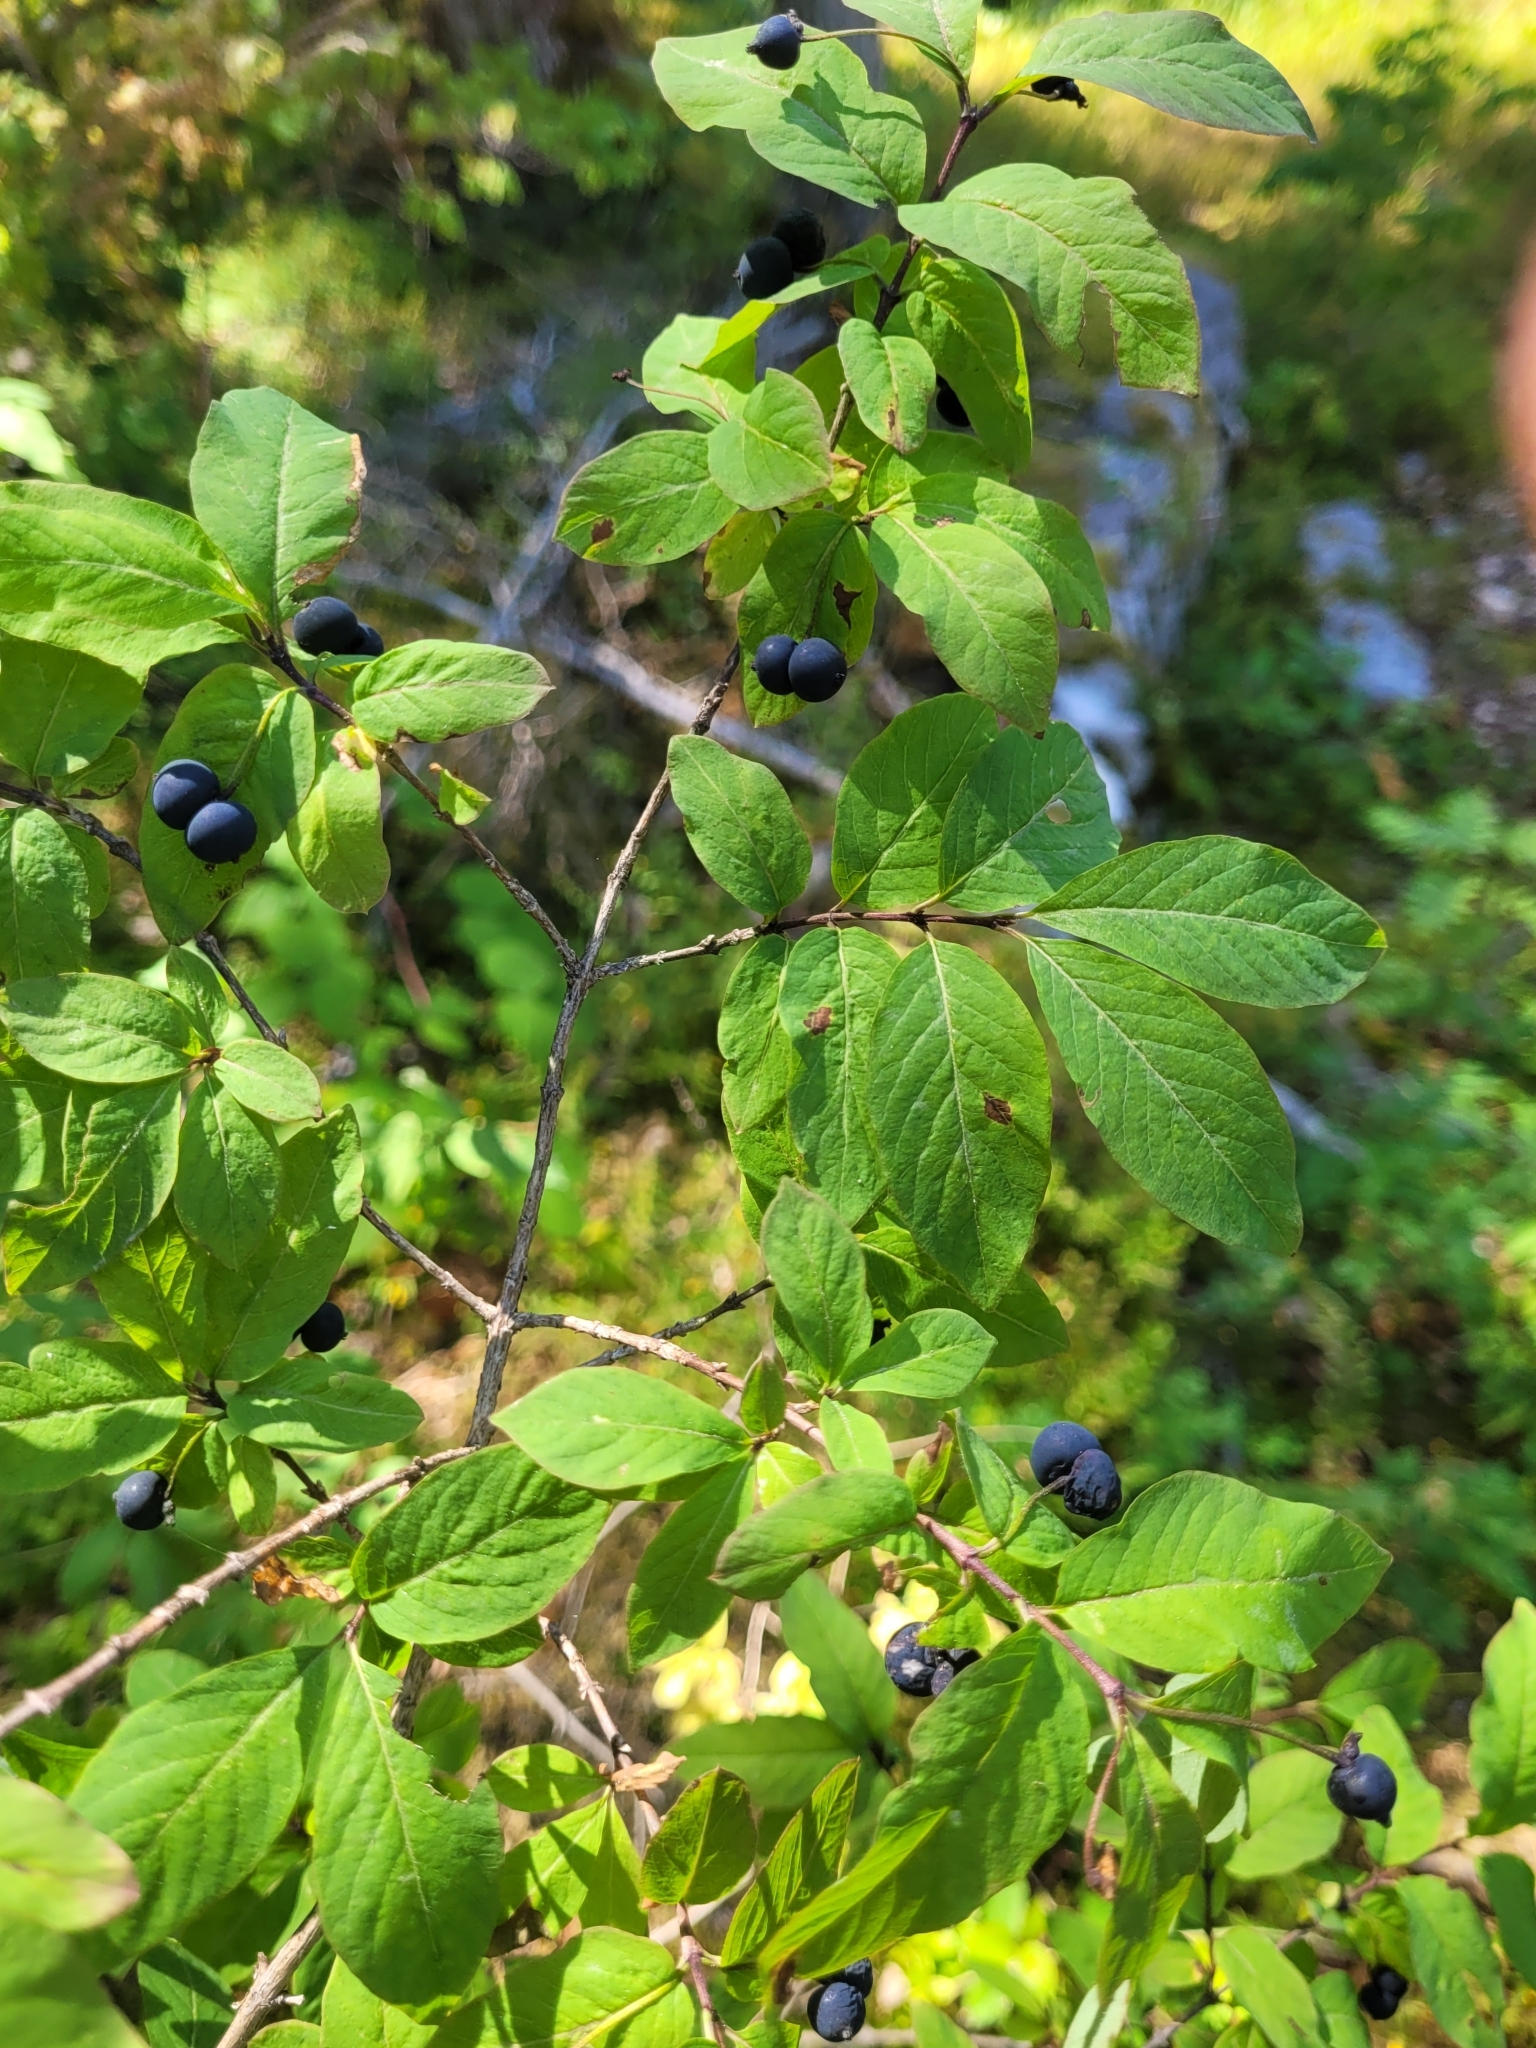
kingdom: Plantae
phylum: Tracheophyta
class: Magnoliopsida
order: Dipsacales
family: Caprifoliaceae
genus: Lonicera
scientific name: Lonicera nigra
